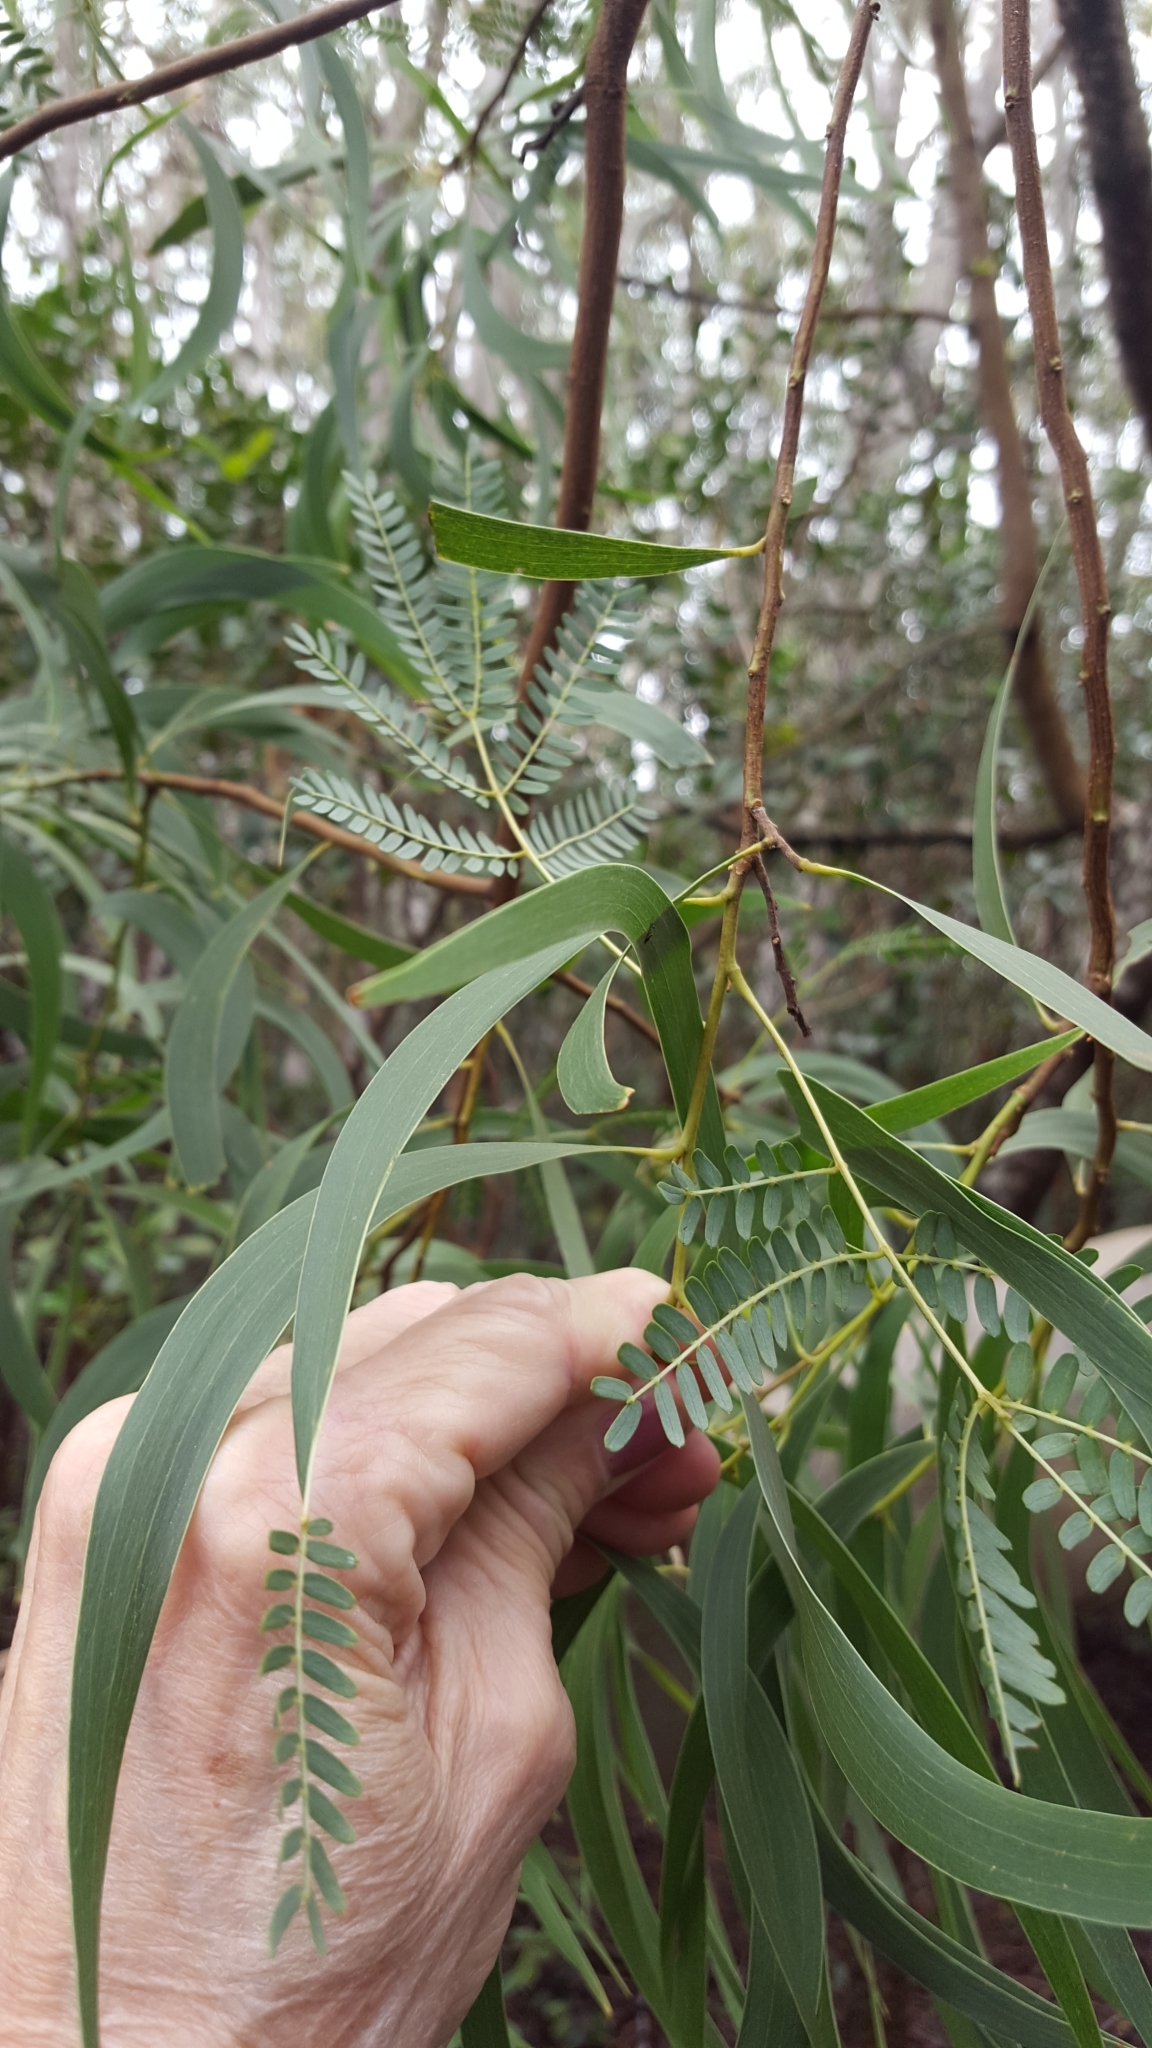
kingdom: Plantae
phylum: Tracheophyta
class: Magnoliopsida
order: Fabales
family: Fabaceae
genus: Acacia
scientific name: Acacia koa
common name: Gray koa
